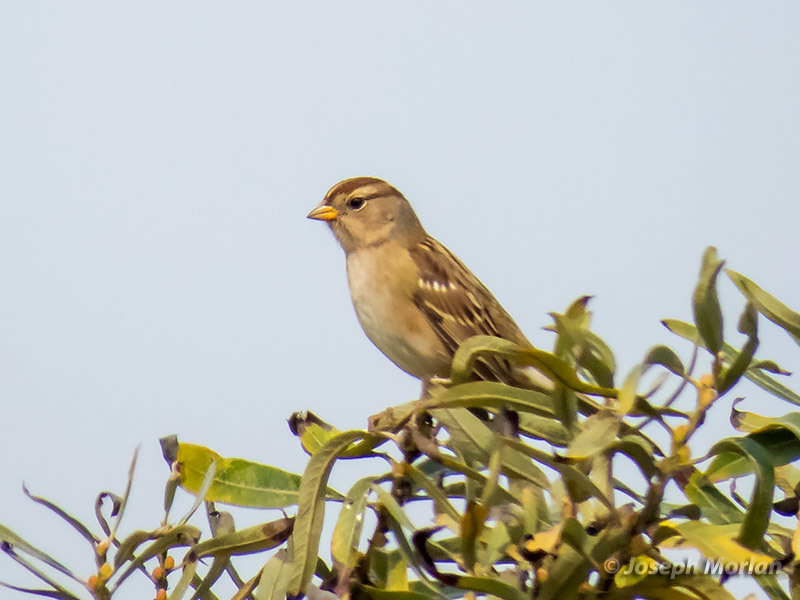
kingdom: Animalia
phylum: Chordata
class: Aves
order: Passeriformes
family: Passerellidae
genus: Zonotrichia
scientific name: Zonotrichia leucophrys
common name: White-crowned sparrow
